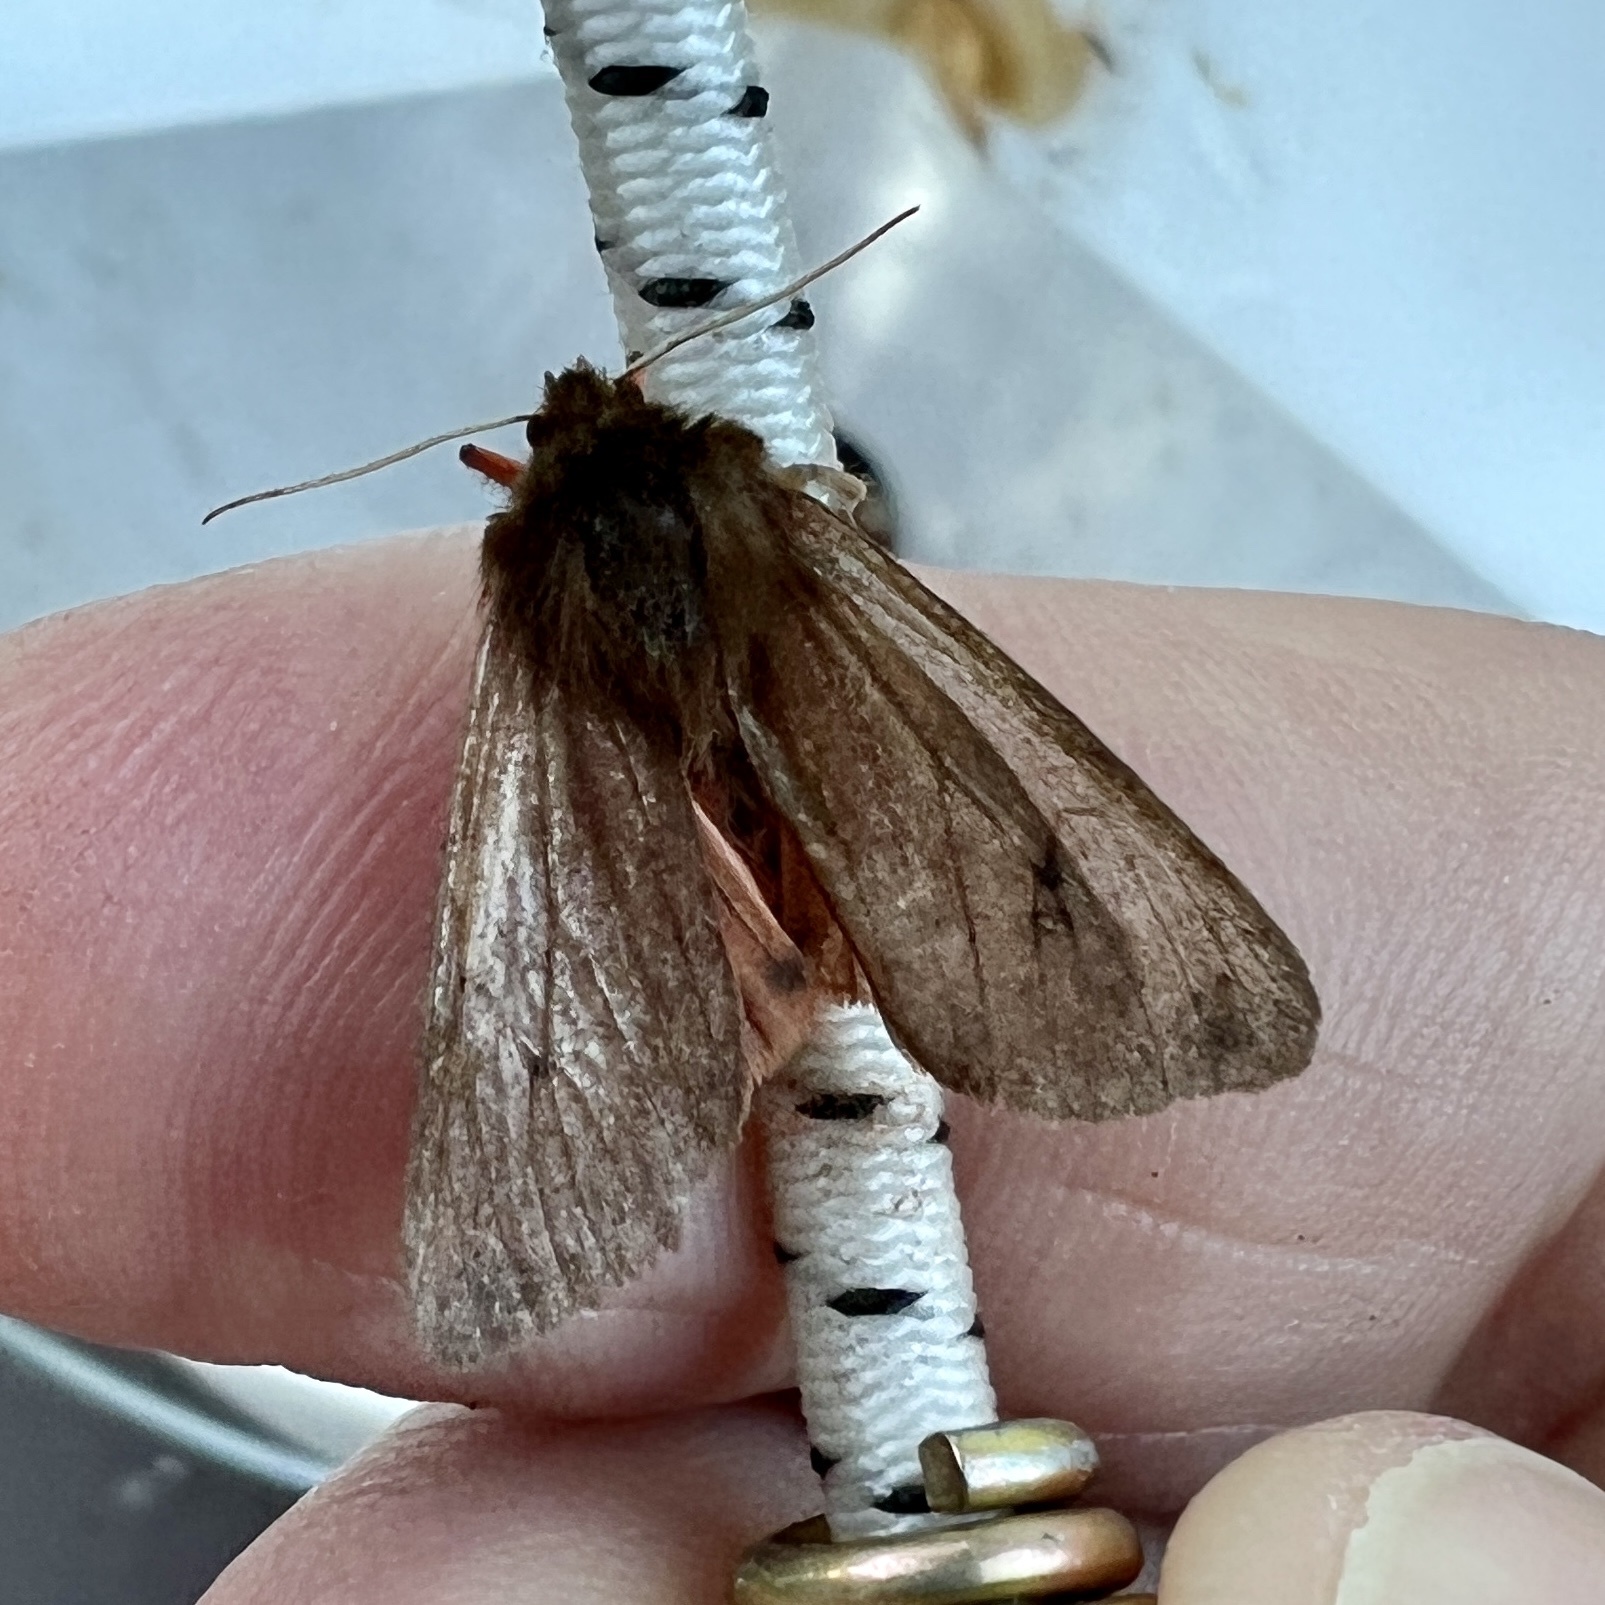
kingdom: Animalia
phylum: Arthropoda
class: Insecta
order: Lepidoptera
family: Erebidae
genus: Phragmatobia
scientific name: Phragmatobia fuliginosa
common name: Ruby tiger
